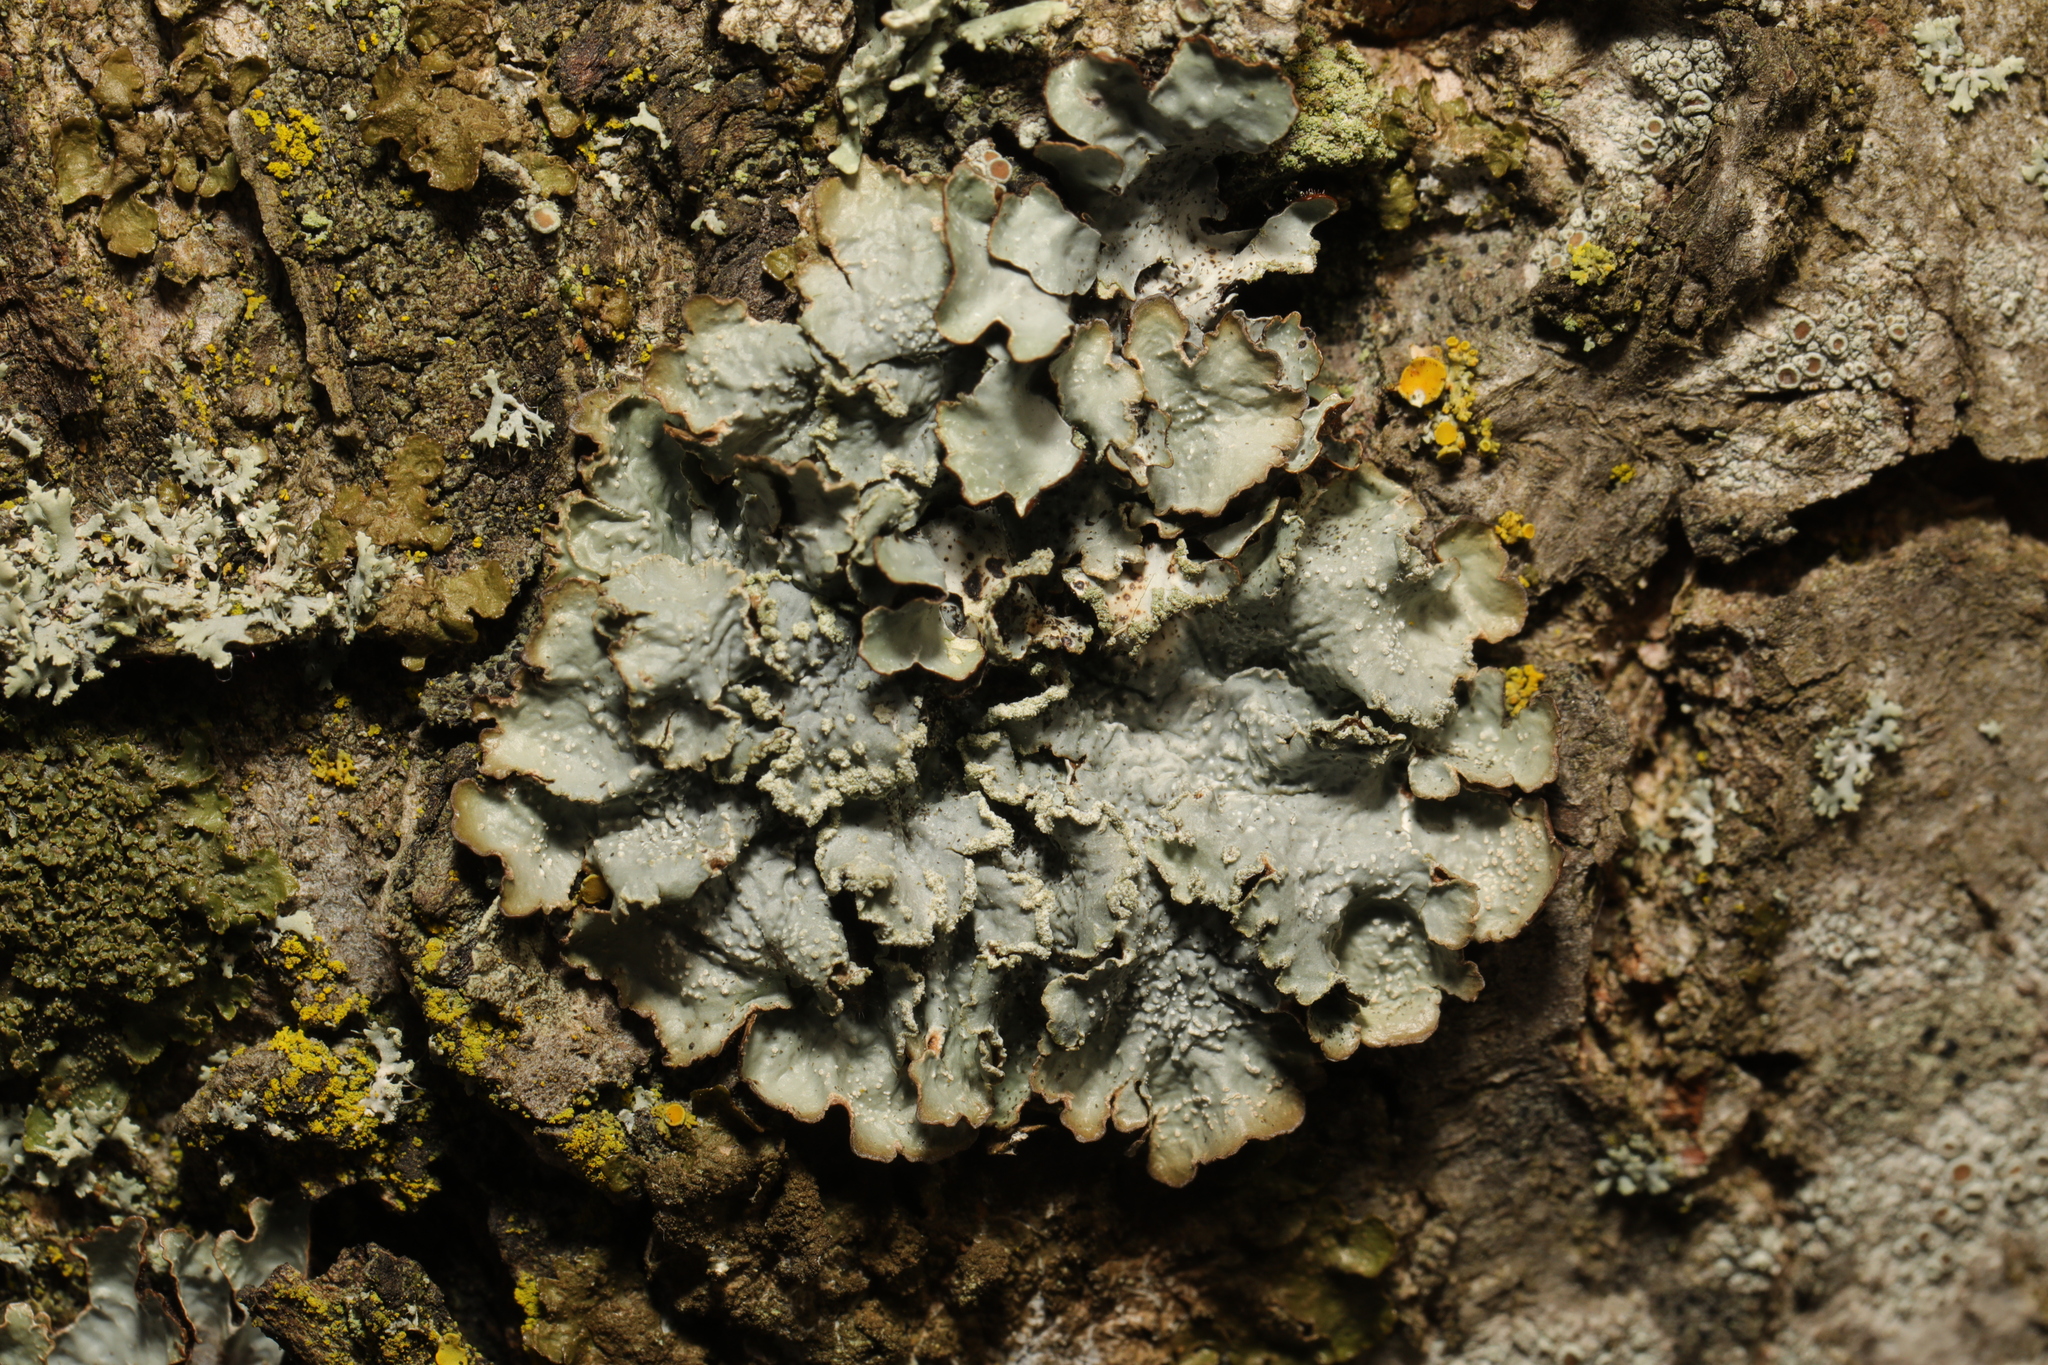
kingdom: Fungi
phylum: Ascomycota
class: Lecanoromycetes
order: Lecanorales
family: Parmeliaceae
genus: Punctelia
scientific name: Punctelia jeckeri
